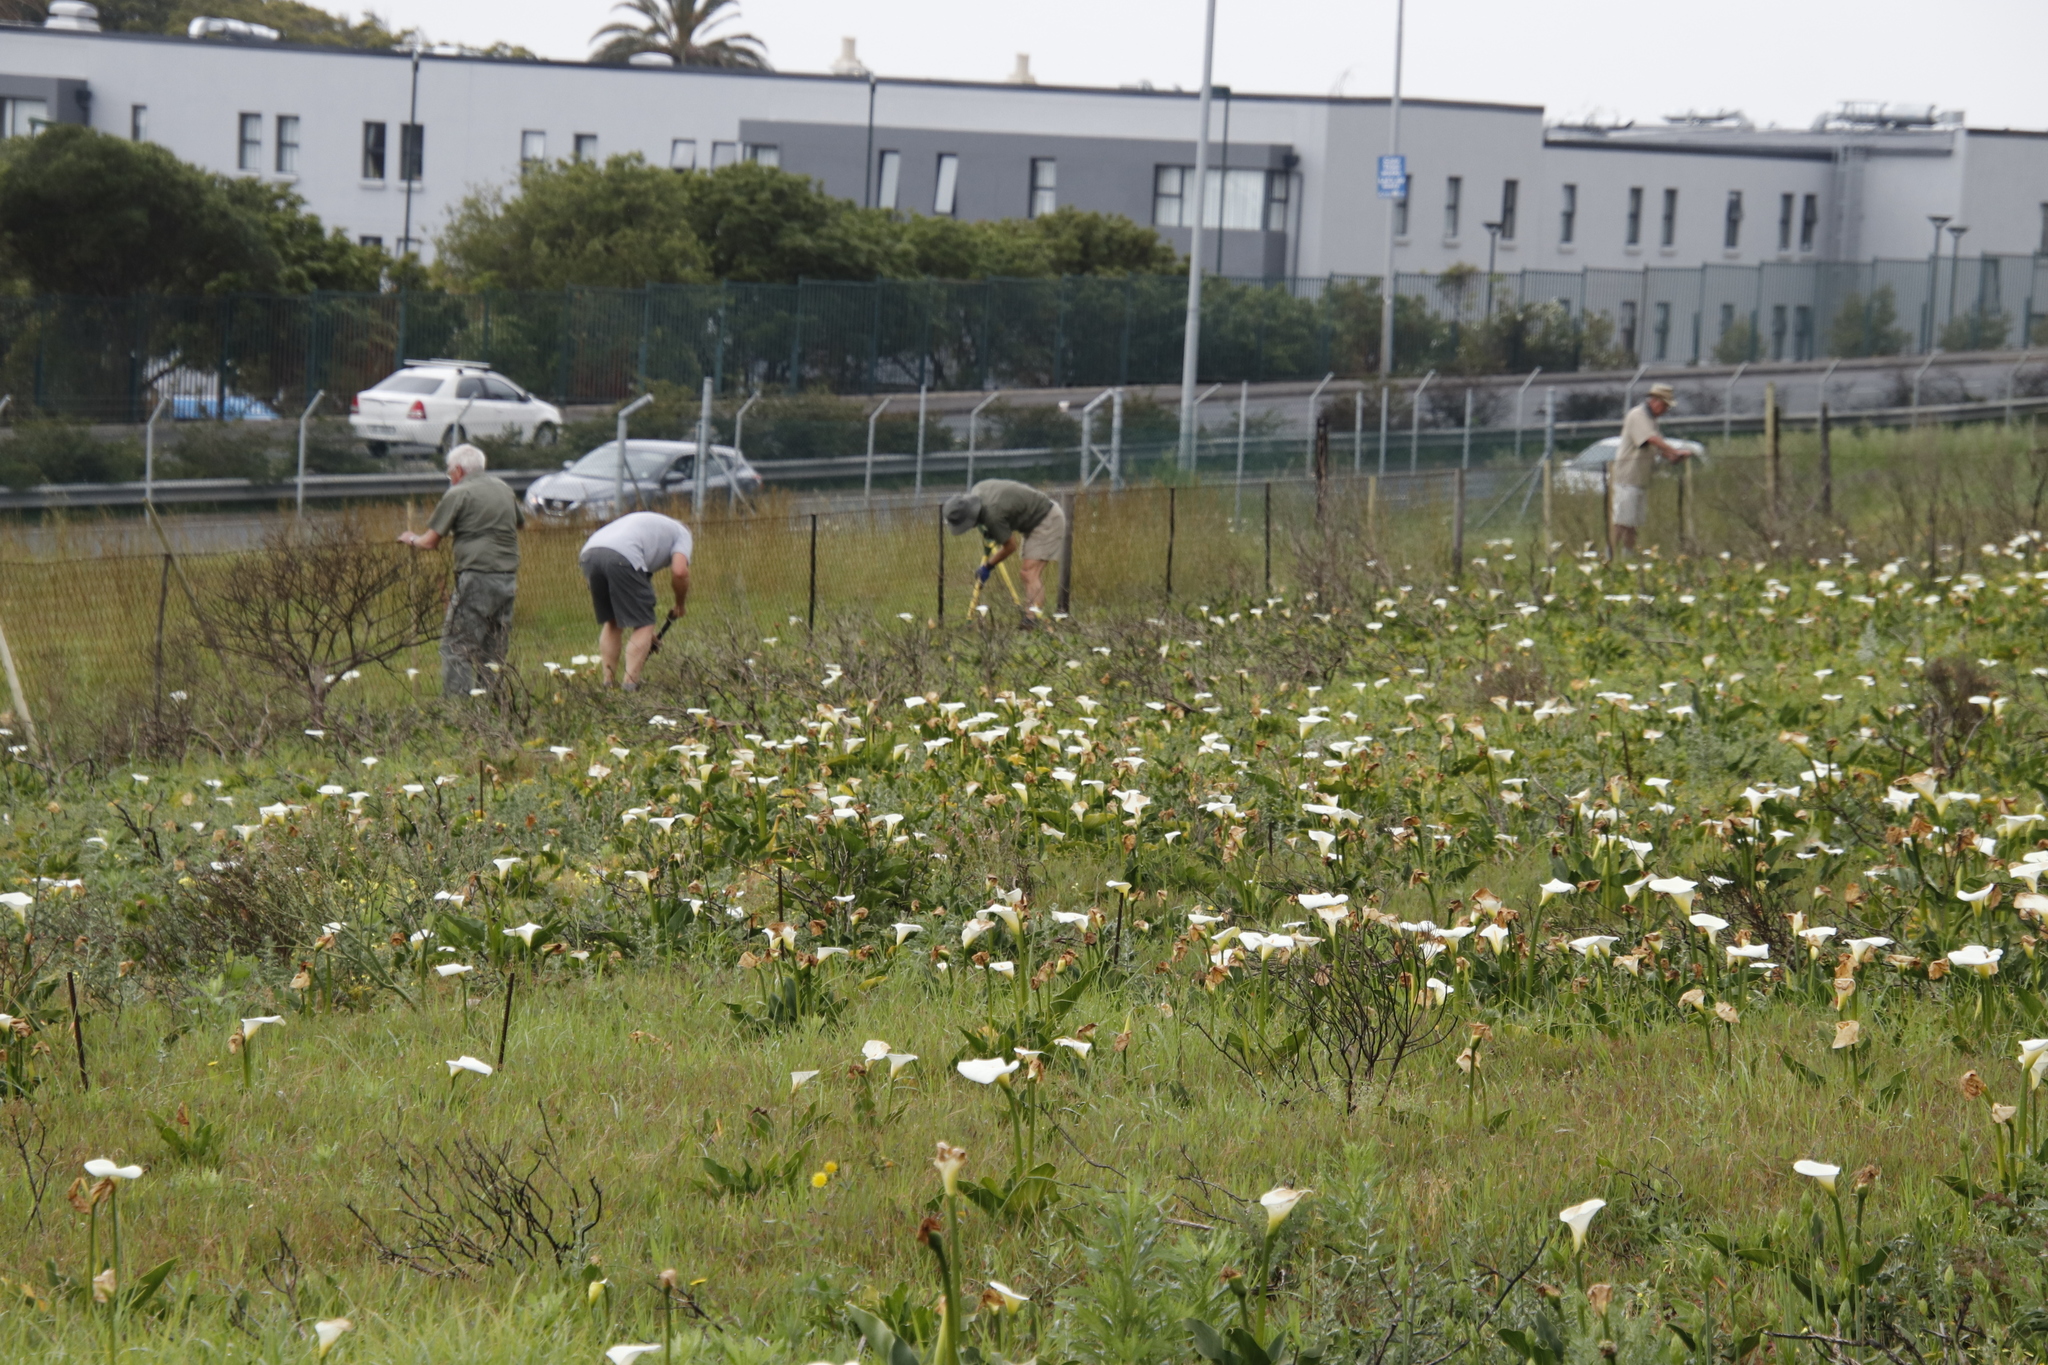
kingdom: Plantae
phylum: Tracheophyta
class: Liliopsida
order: Alismatales
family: Araceae
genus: Zantedeschia
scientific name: Zantedeschia aethiopica
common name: Altar-lily
